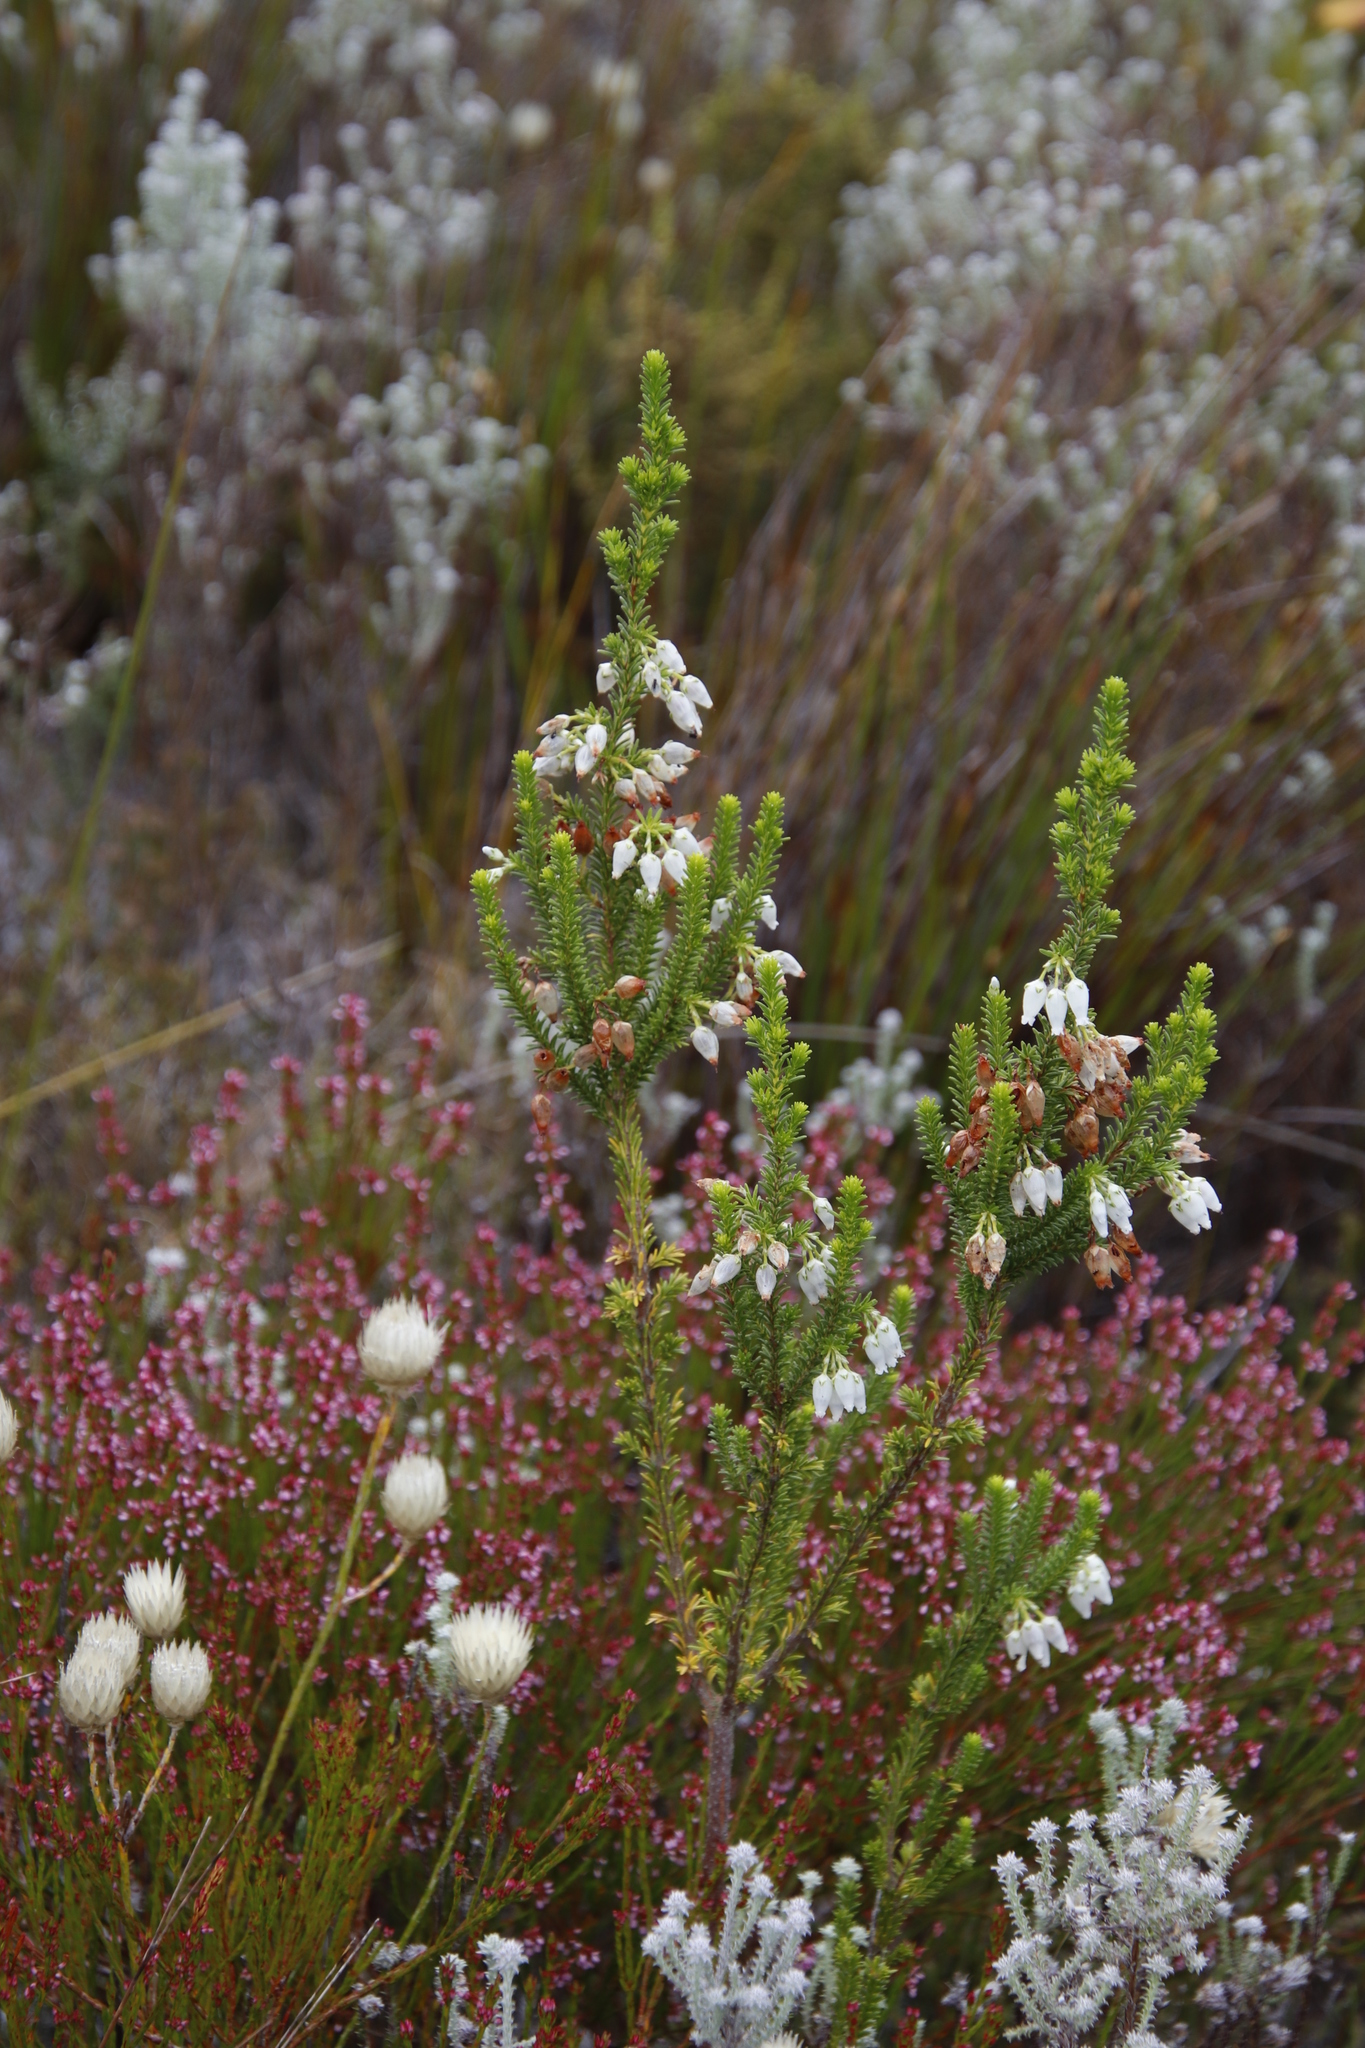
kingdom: Plantae
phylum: Tracheophyta
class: Magnoliopsida
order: Ericales
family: Ericaceae
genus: Erica
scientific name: Erica physodes
